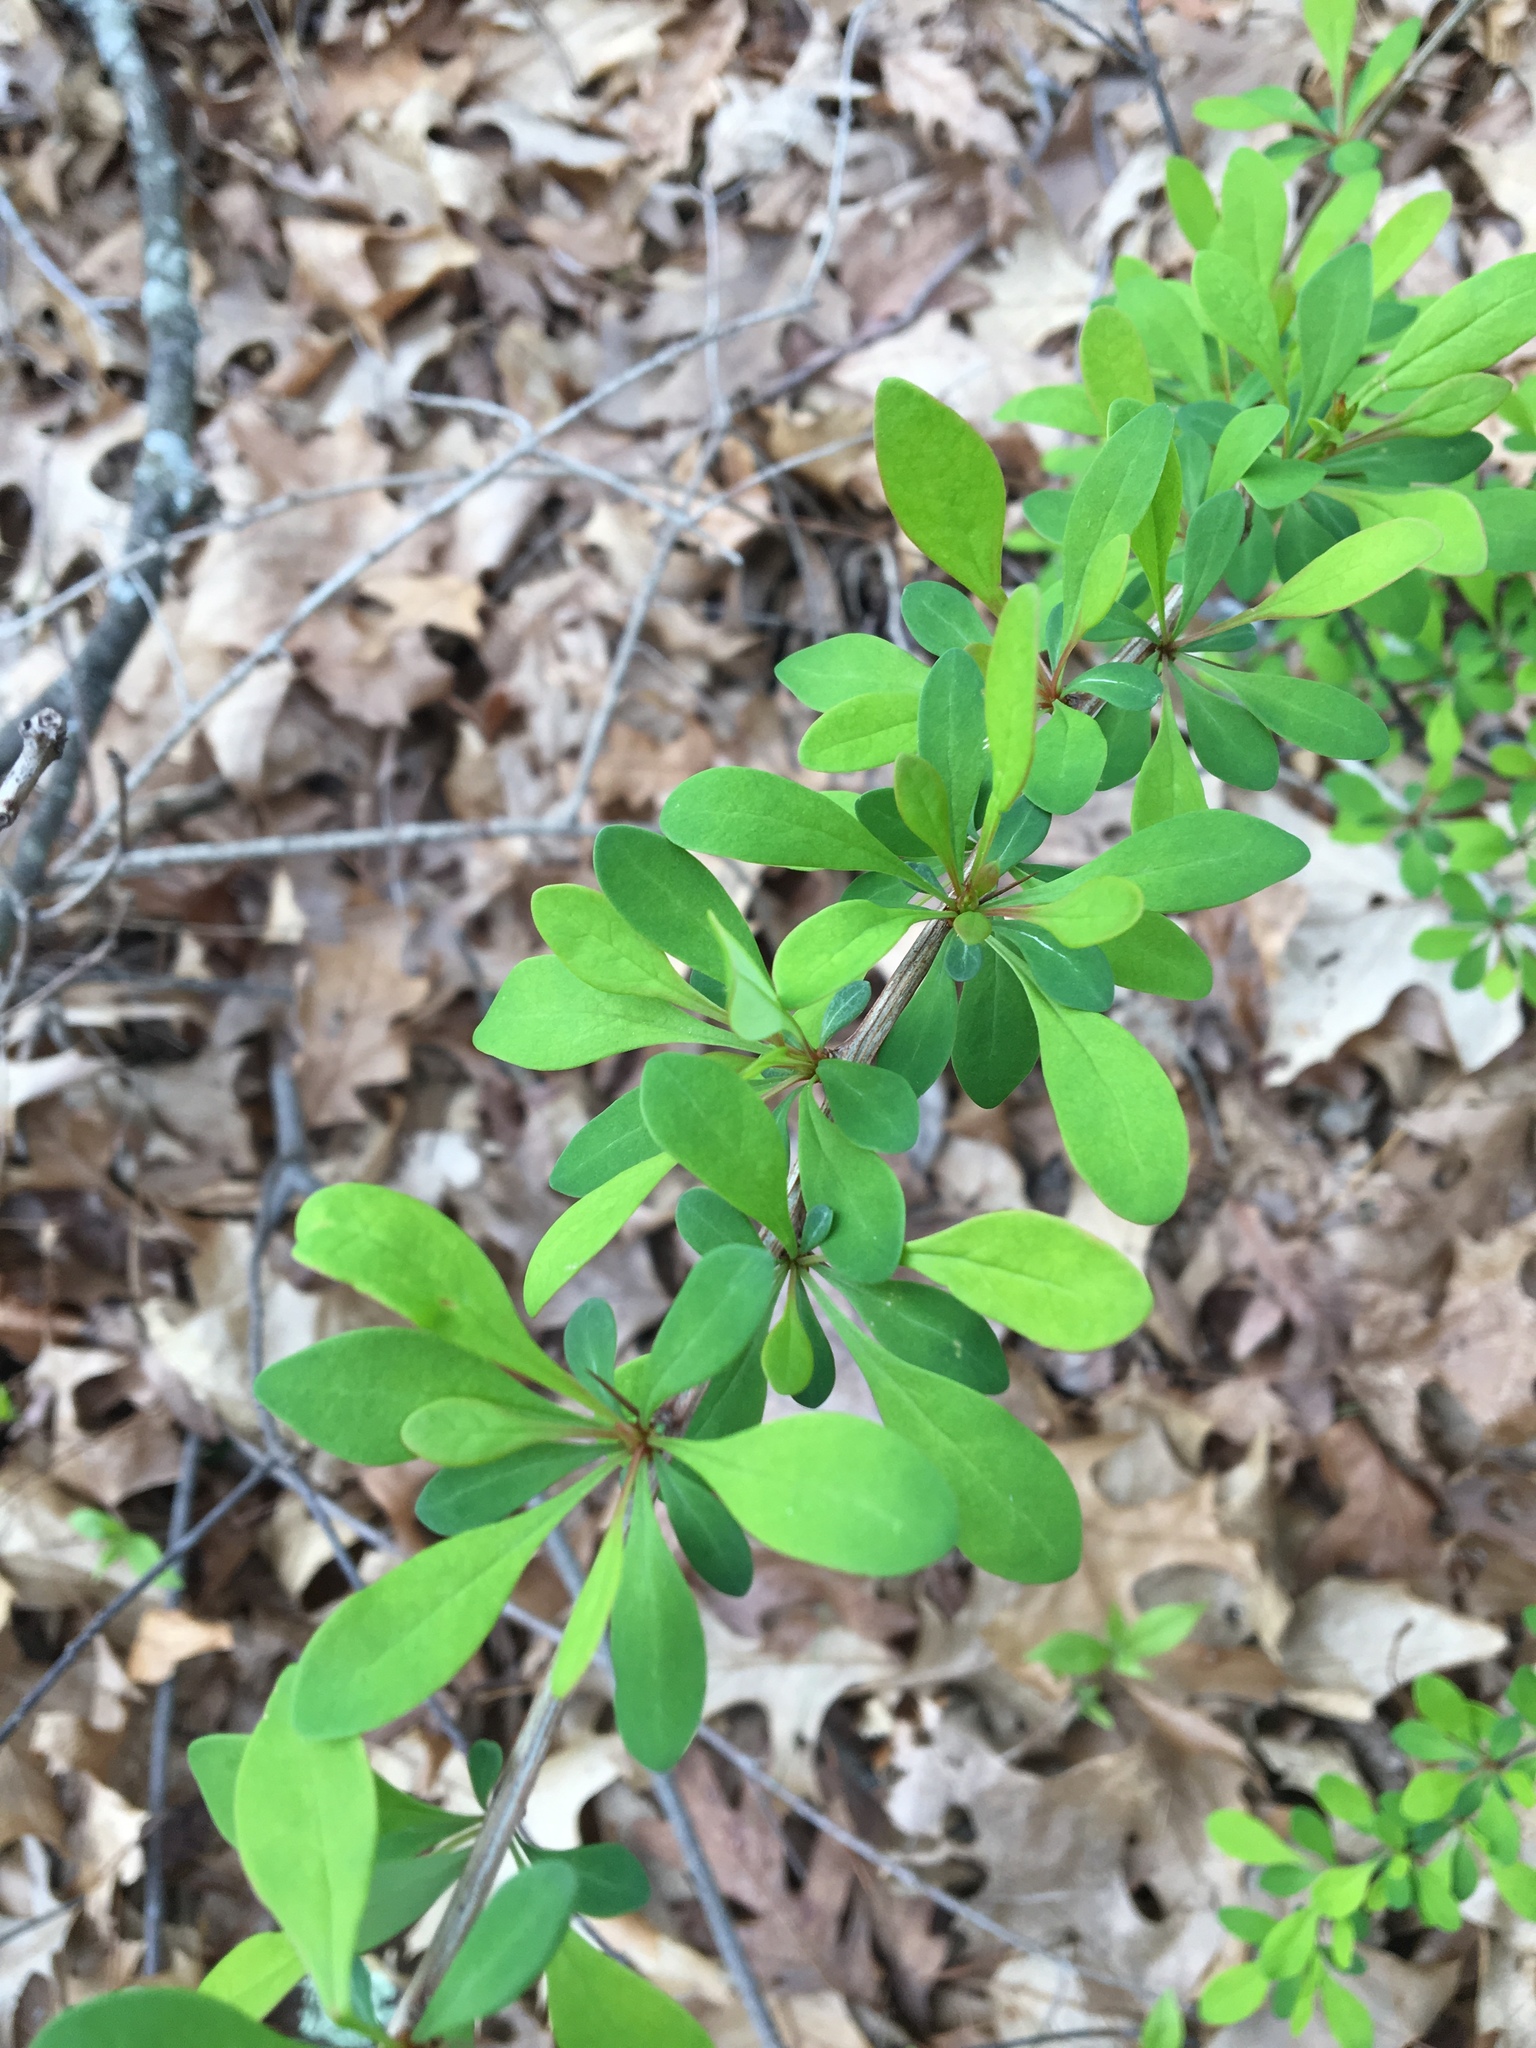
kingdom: Plantae
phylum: Tracheophyta
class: Magnoliopsida
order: Ranunculales
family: Berberidaceae
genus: Berberis
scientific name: Berberis thunbergii
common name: Japanese barberry
